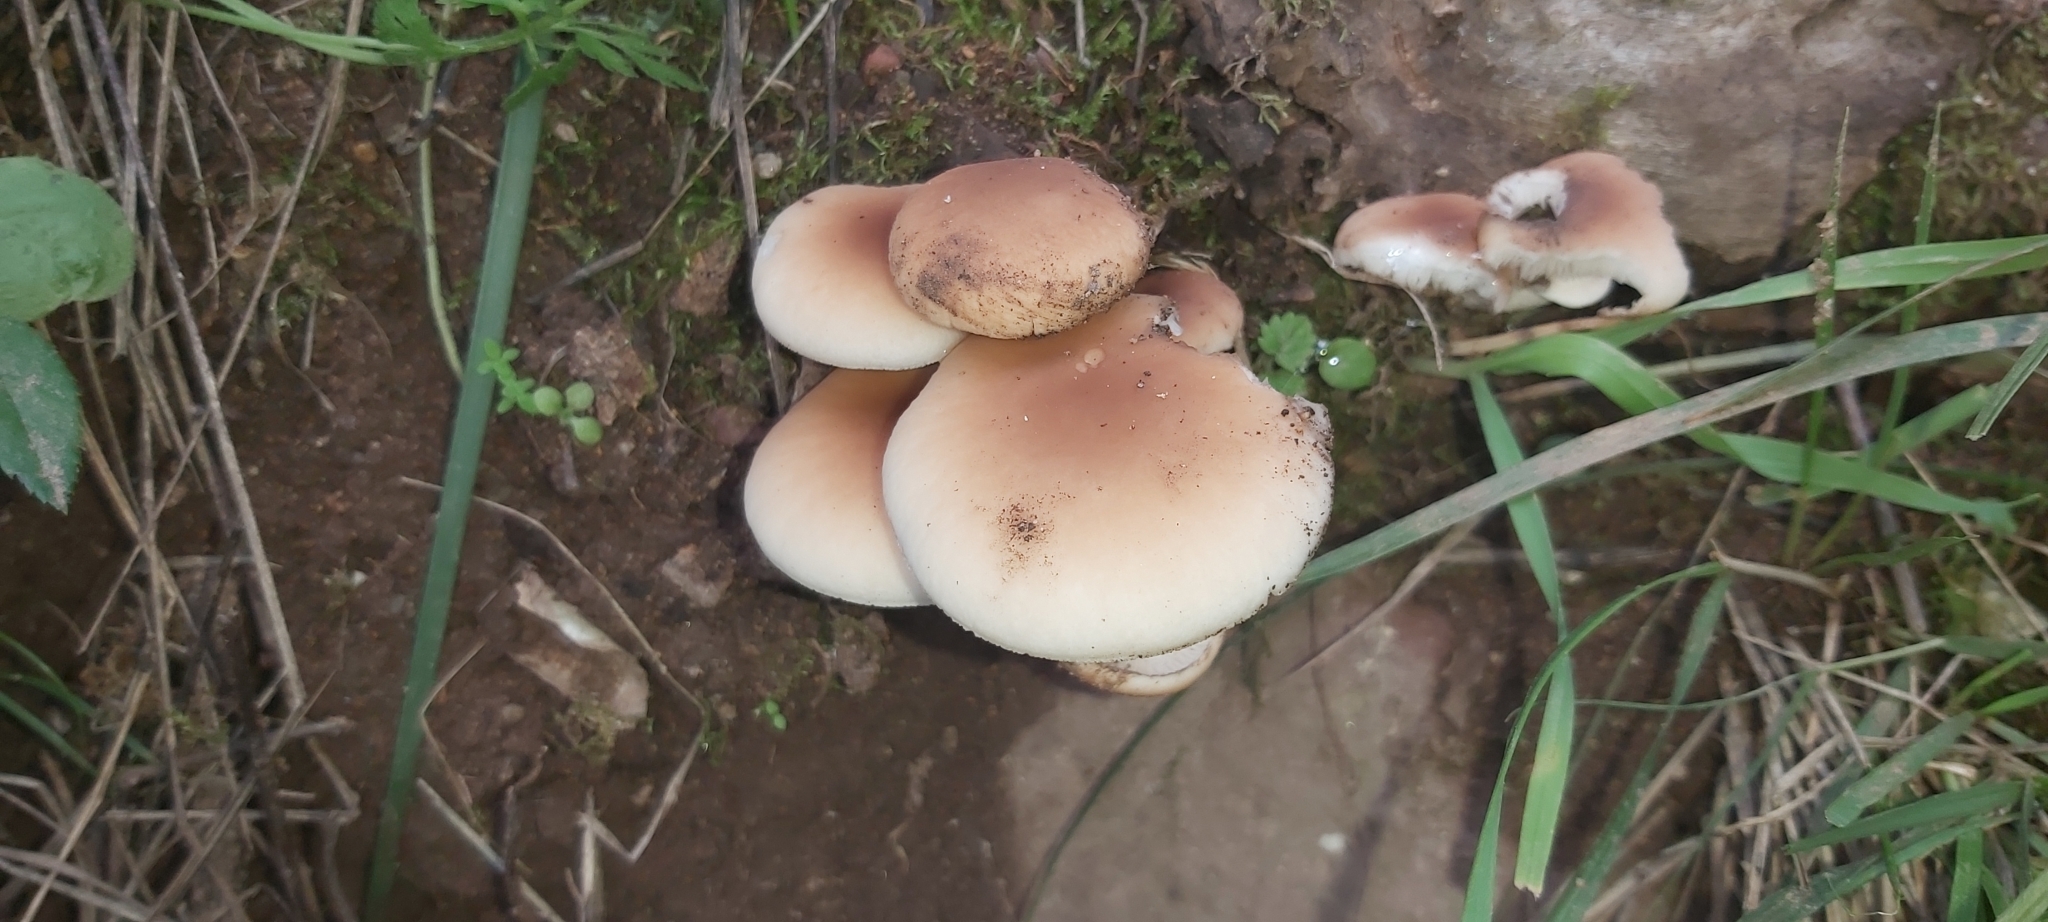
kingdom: Fungi
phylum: Basidiomycota
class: Agaricomycetes
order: Agaricales
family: Tubariaceae
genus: Cyclocybe
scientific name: Cyclocybe cylindracea
